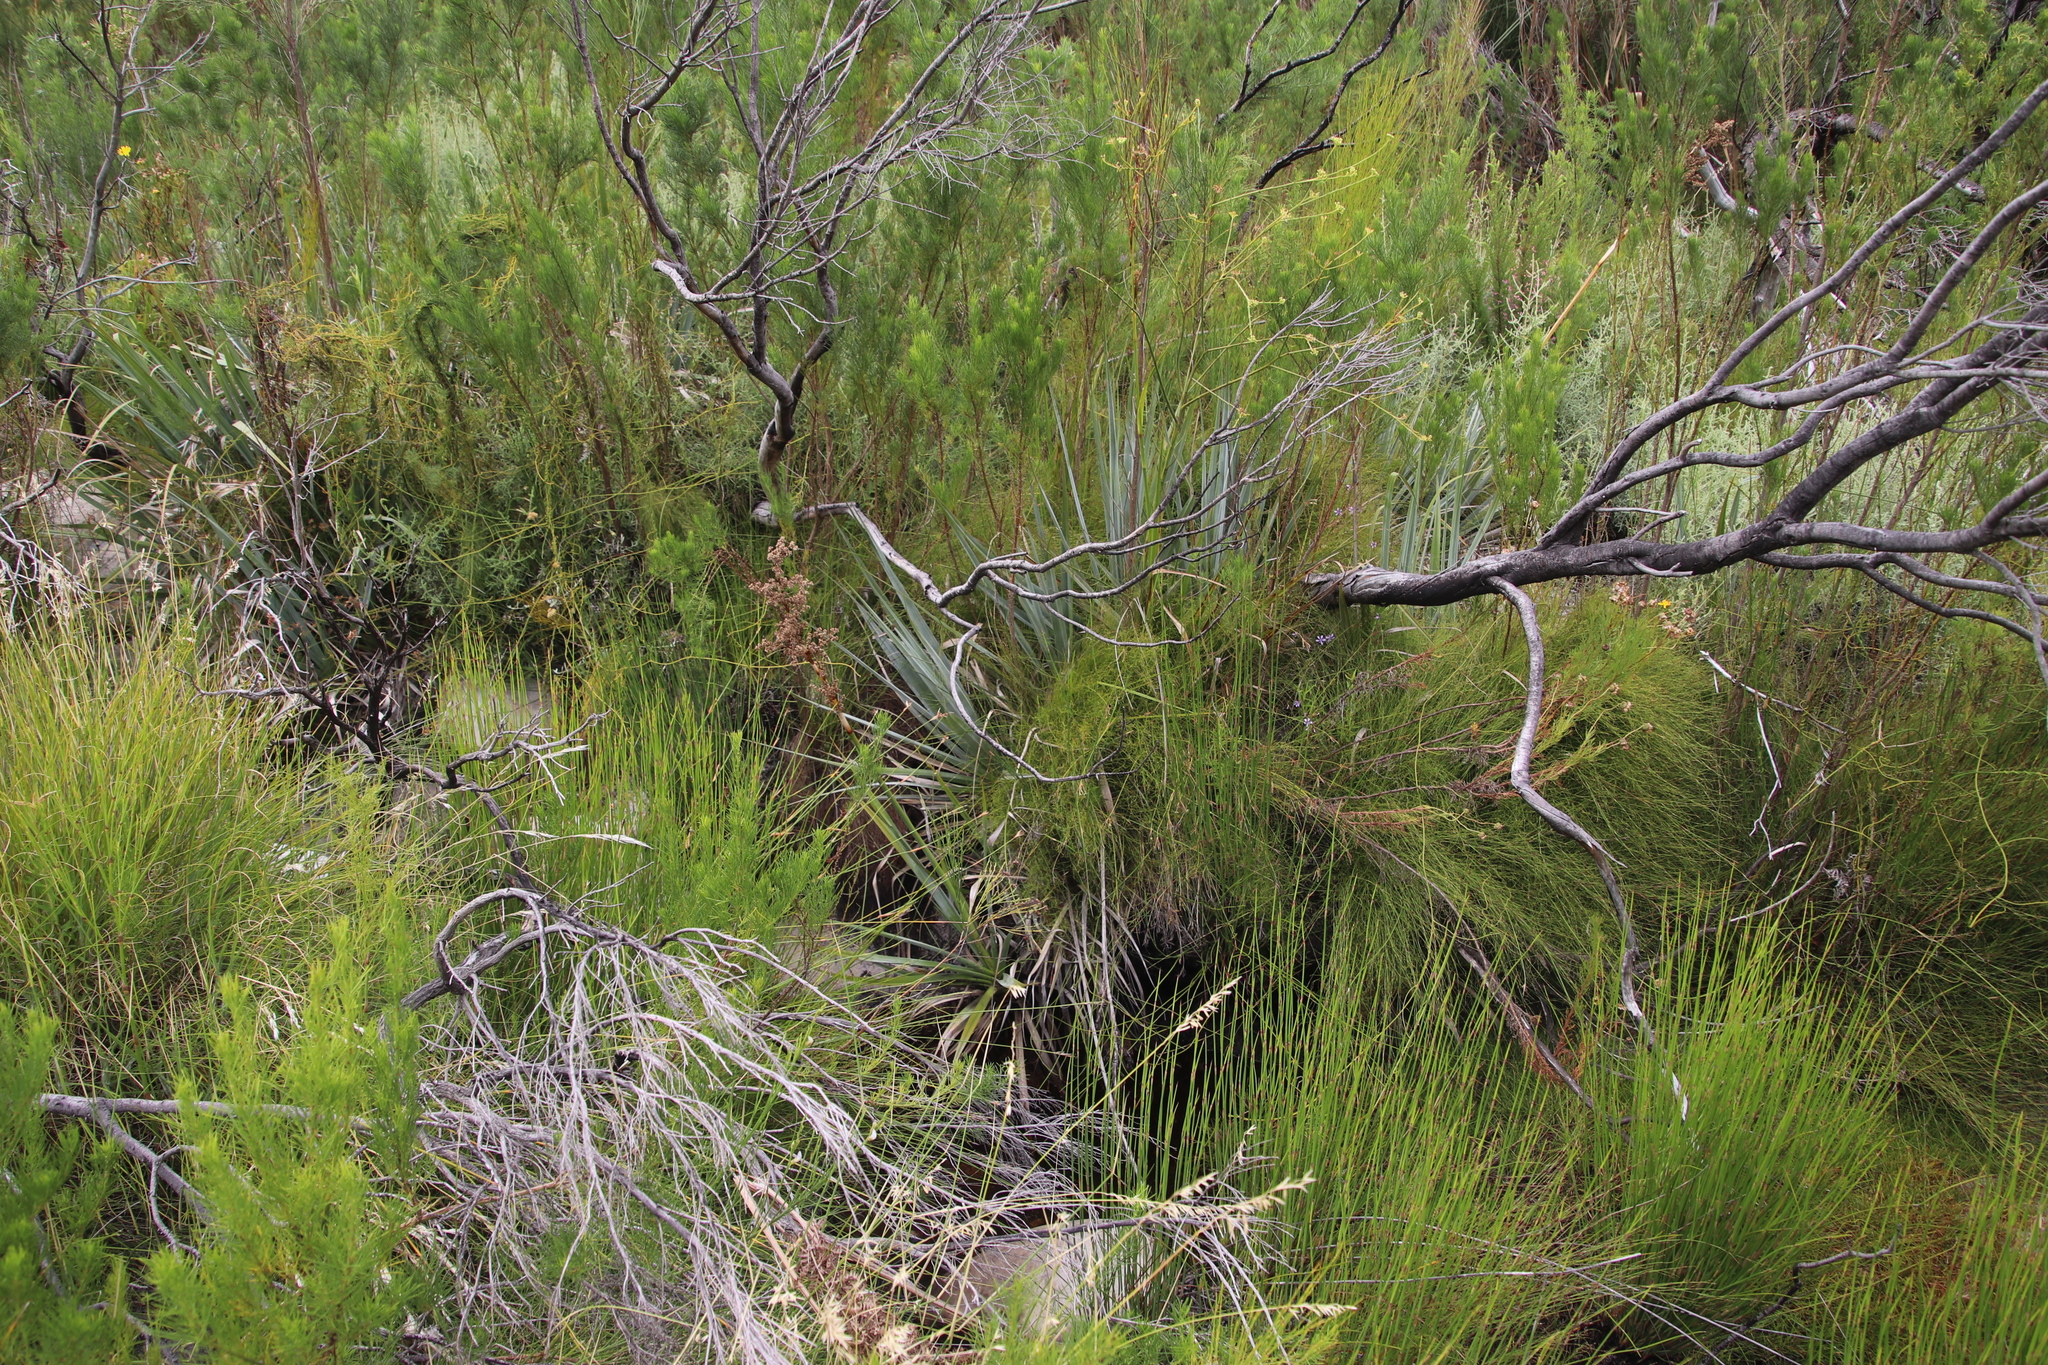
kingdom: Plantae
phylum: Tracheophyta
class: Magnoliopsida
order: Santalales
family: Thesiaceae
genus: Thesium
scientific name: Thesium strictum
